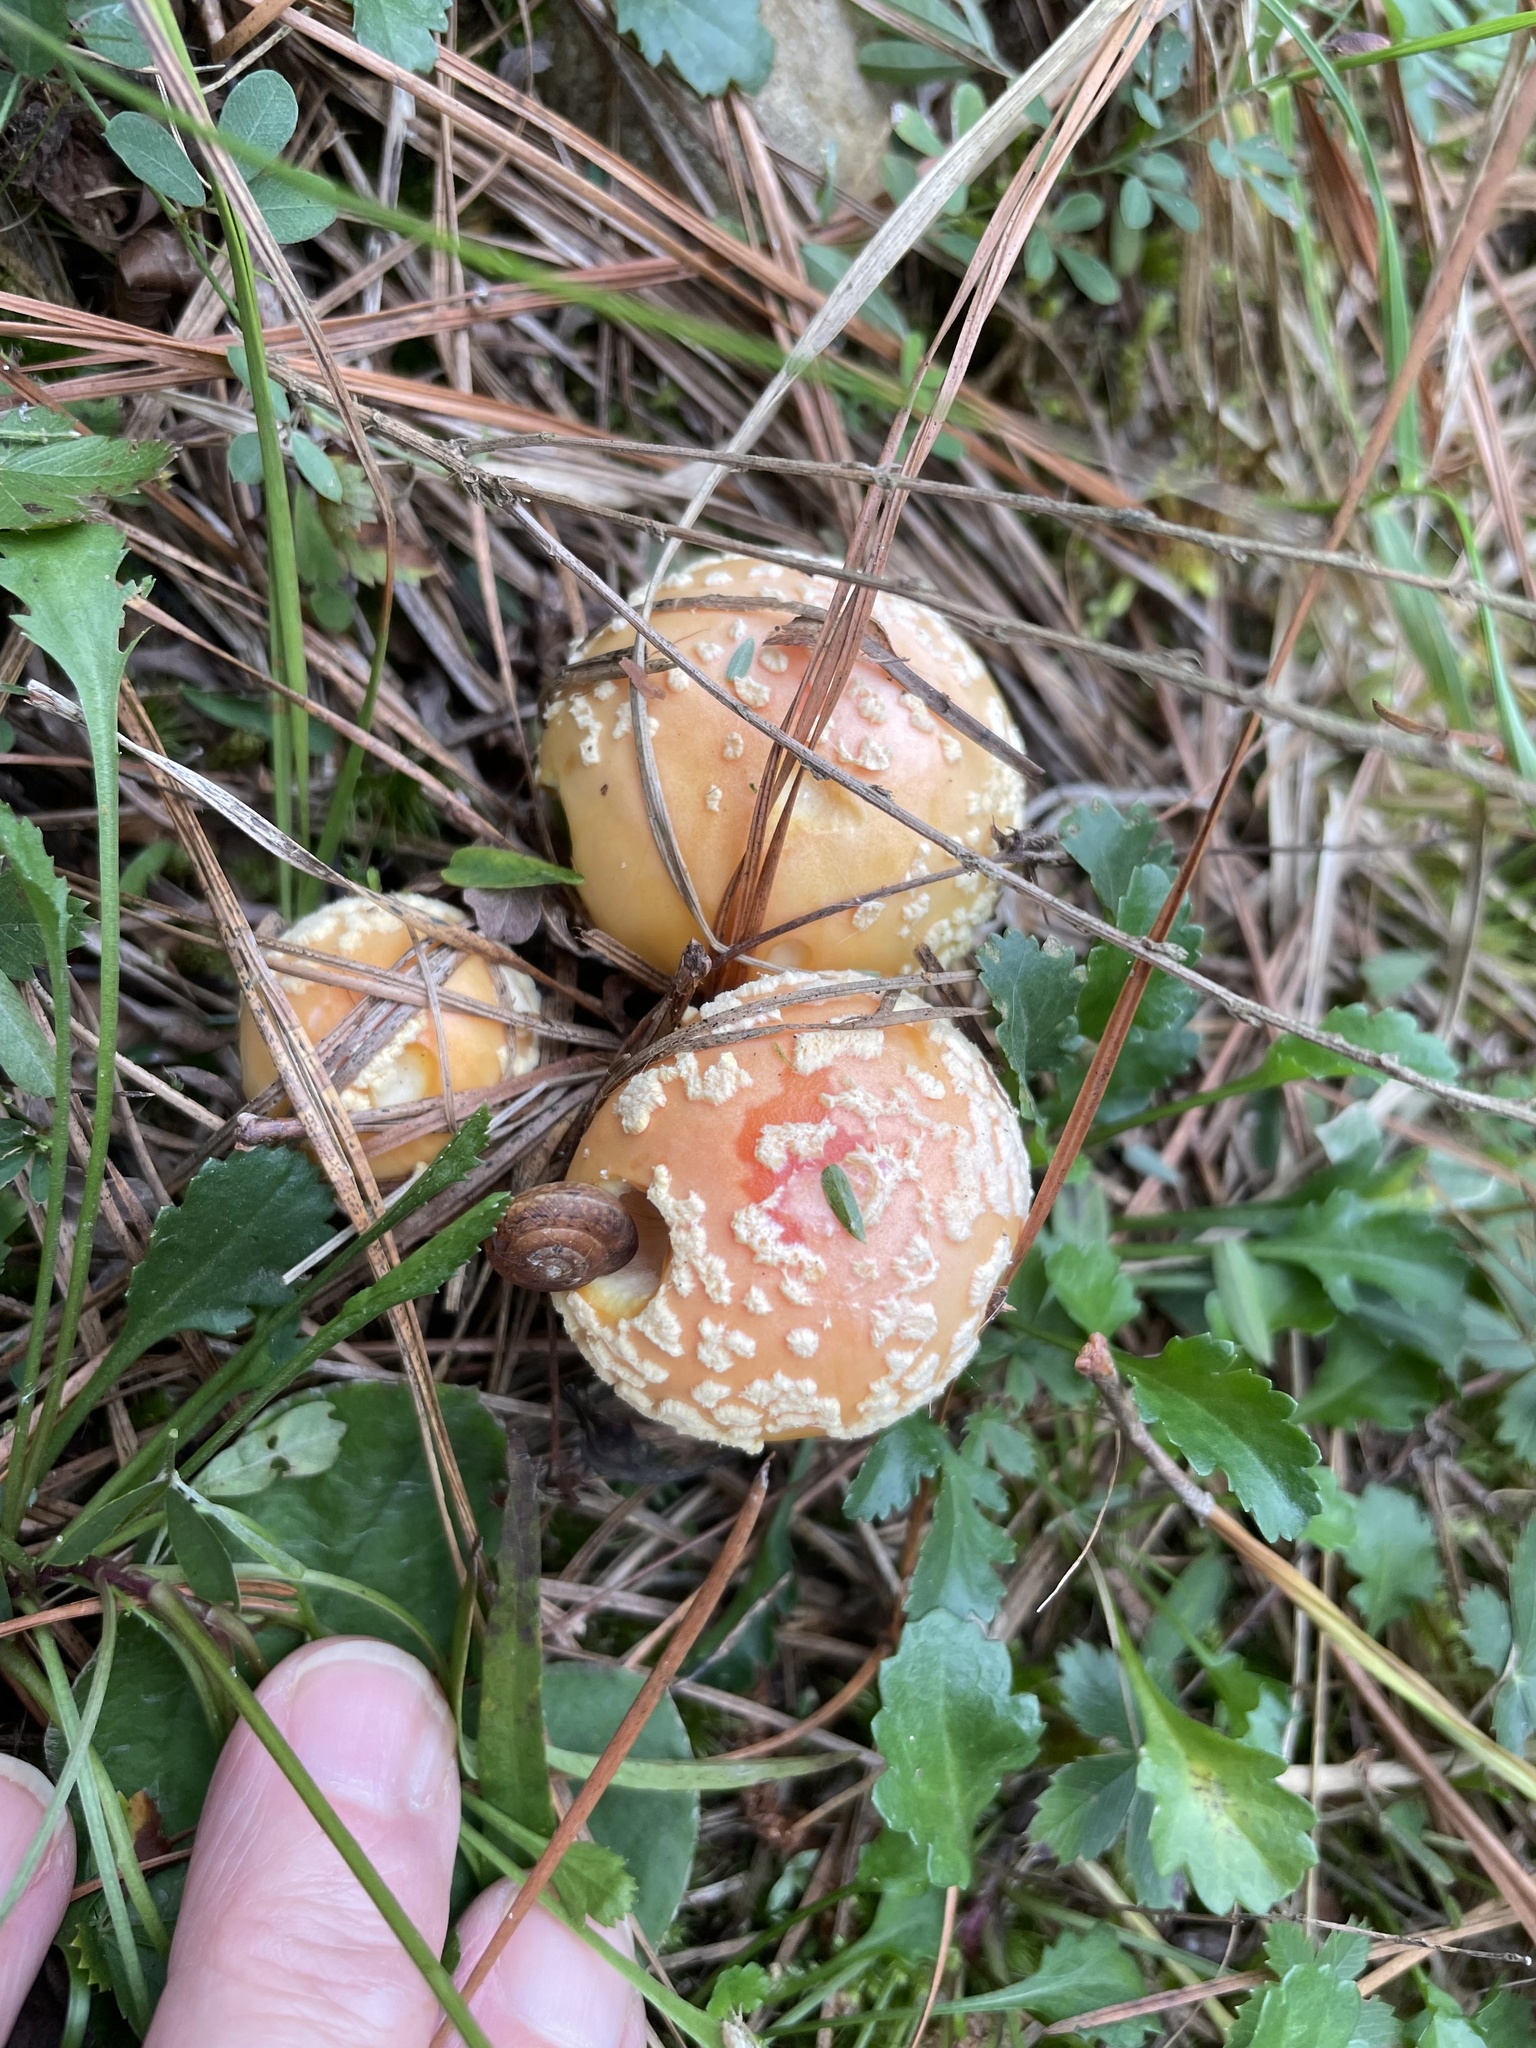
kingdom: Fungi
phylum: Basidiomycota
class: Agaricomycetes
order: Agaricales
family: Amanitaceae
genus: Amanita
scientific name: Amanita persicina
